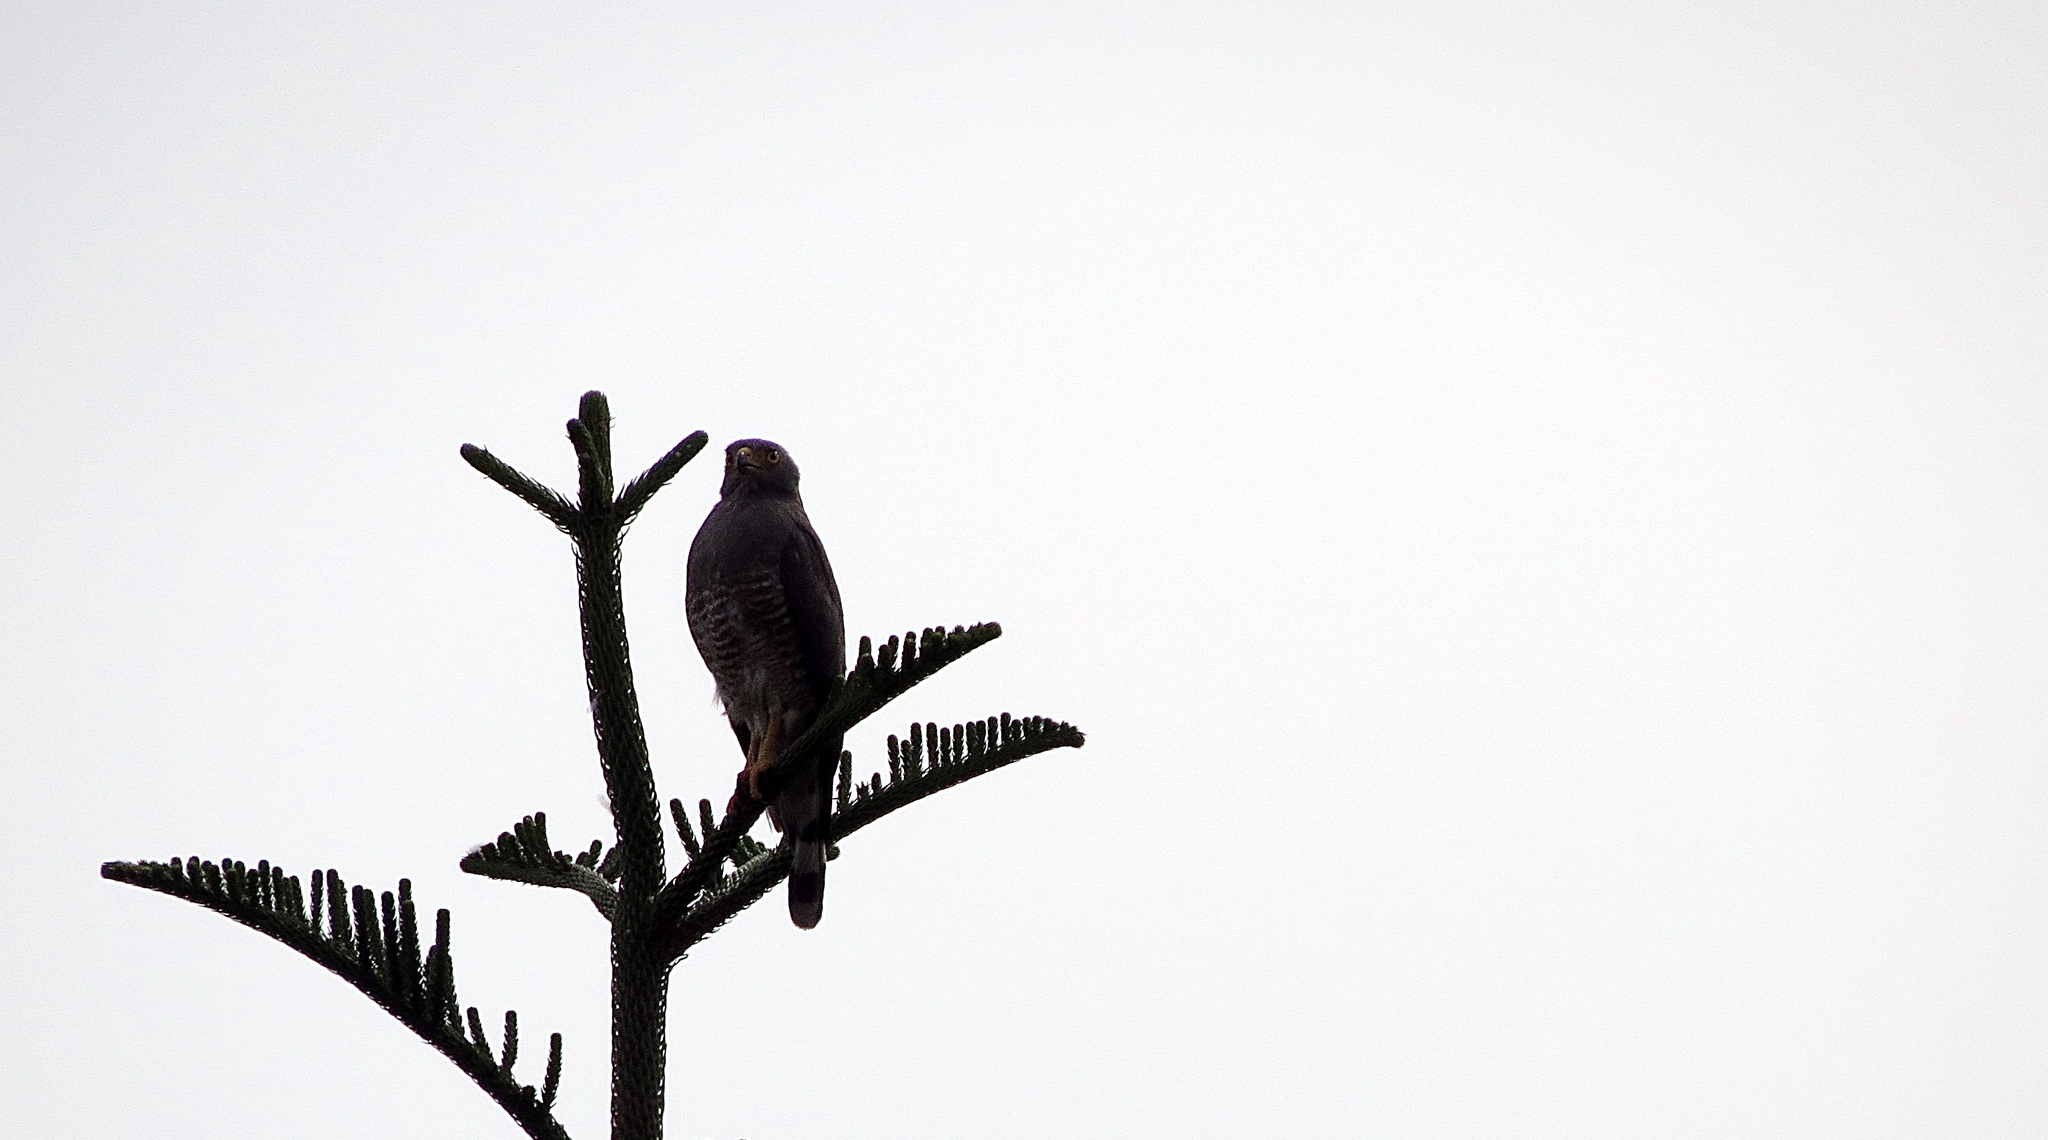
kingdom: Animalia
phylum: Chordata
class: Aves
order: Accipitriformes
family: Accipitridae
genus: Rupornis
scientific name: Rupornis magnirostris
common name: Roadside hawk
